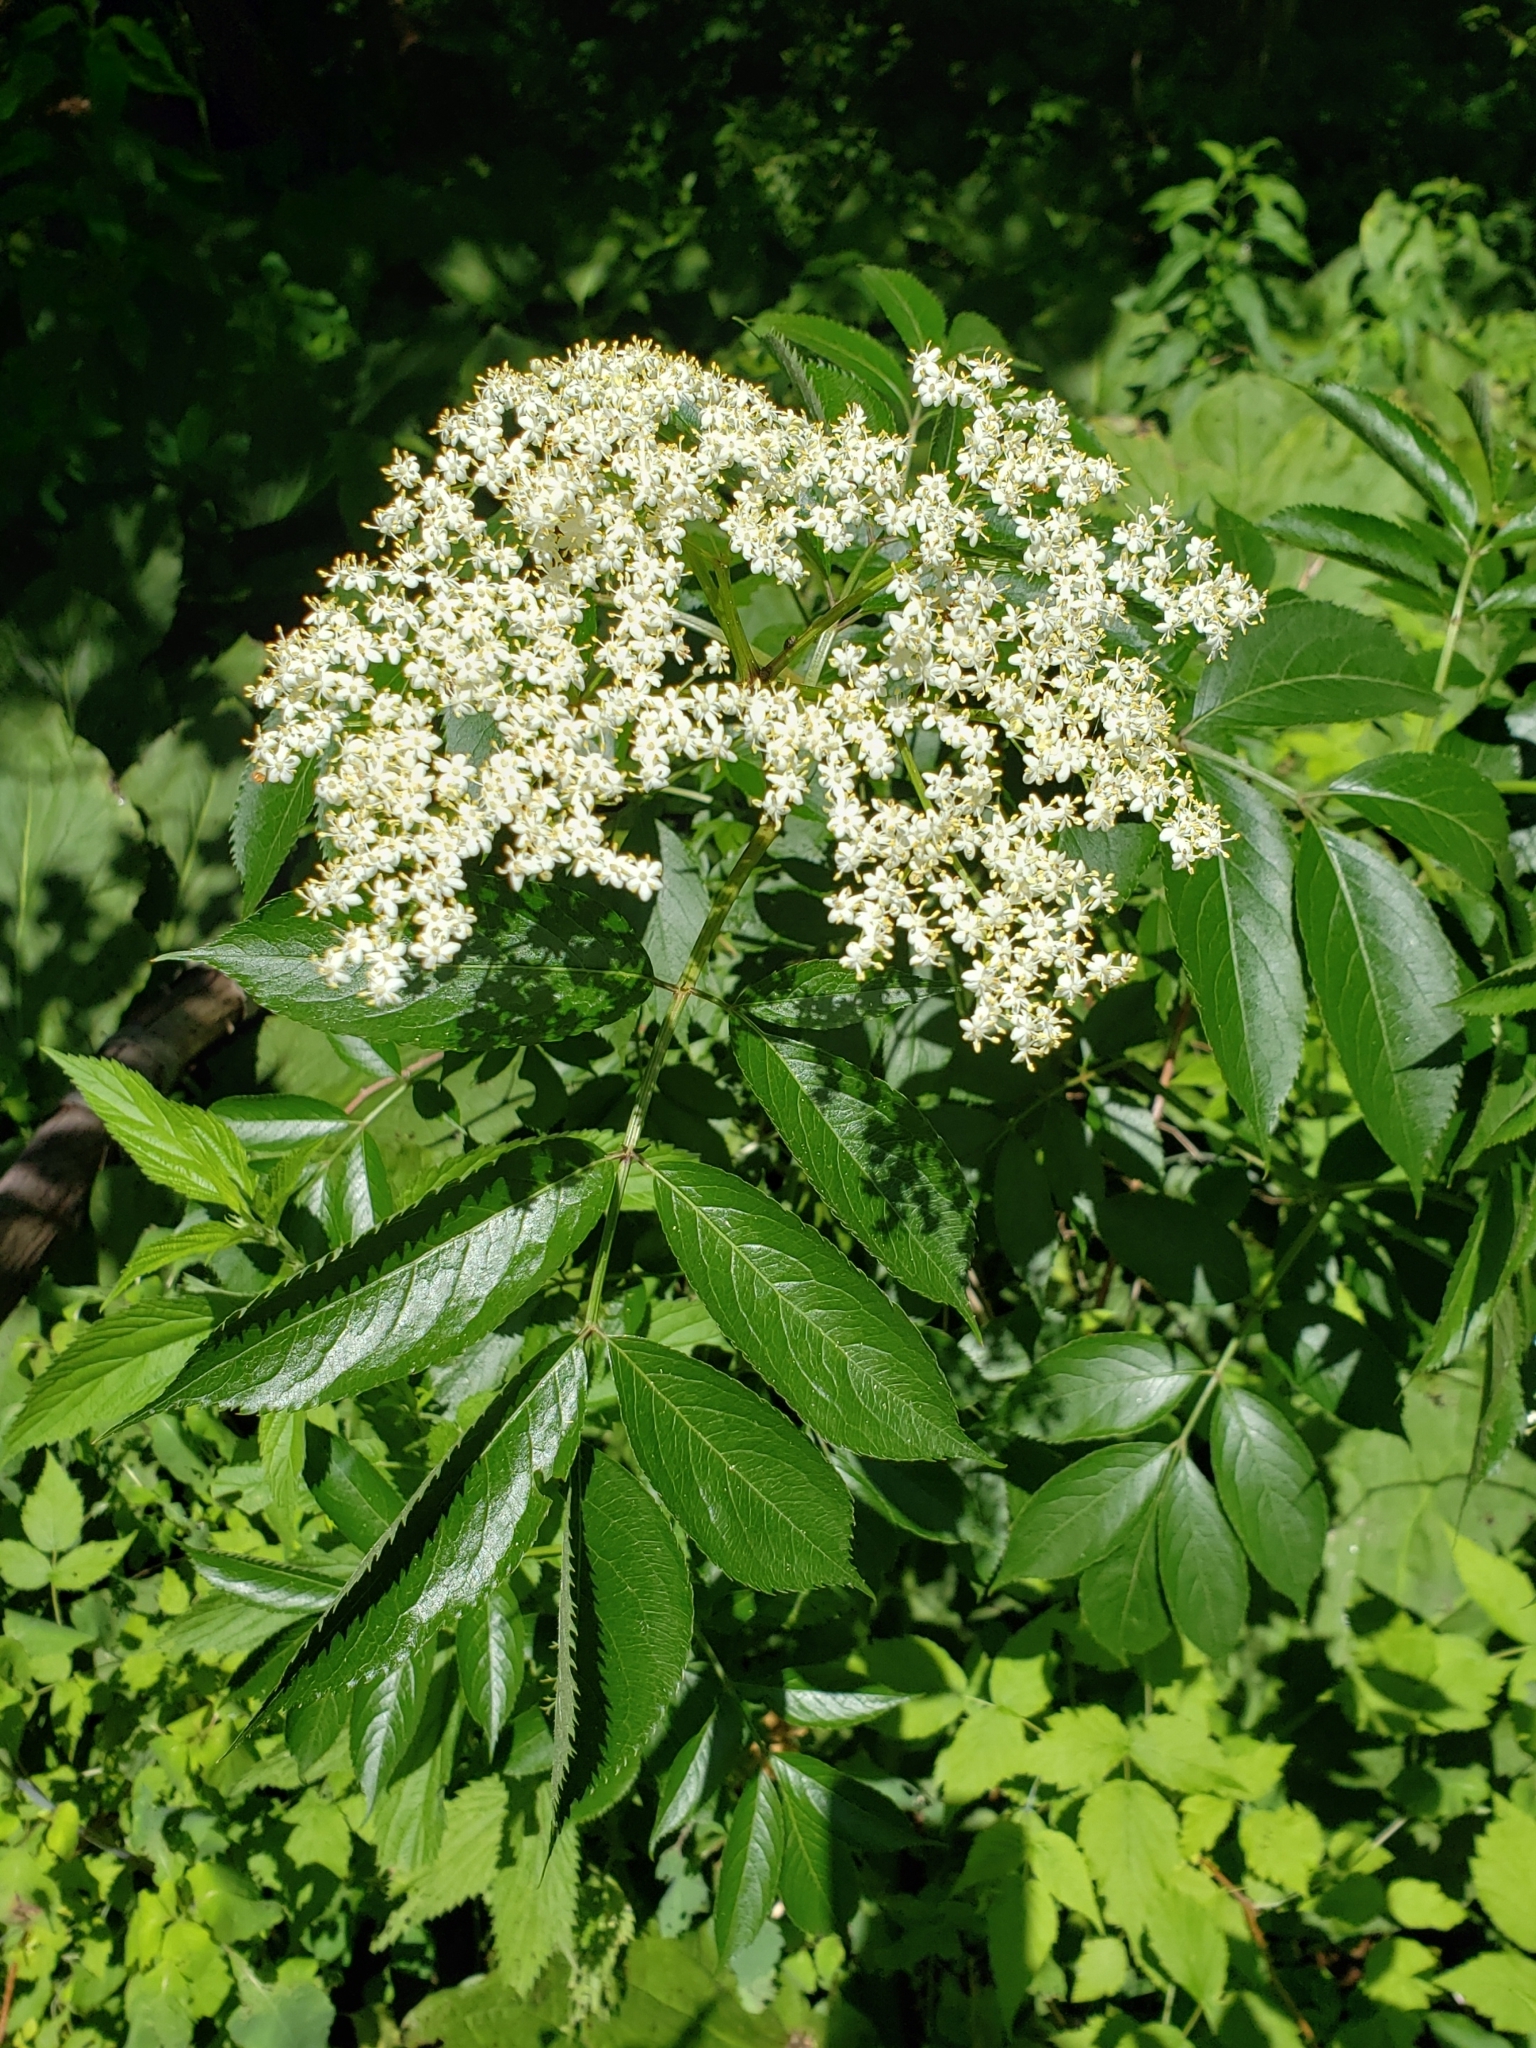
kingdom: Plantae
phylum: Tracheophyta
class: Magnoliopsida
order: Dipsacales
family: Viburnaceae
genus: Sambucus
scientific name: Sambucus canadensis
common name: American elder
